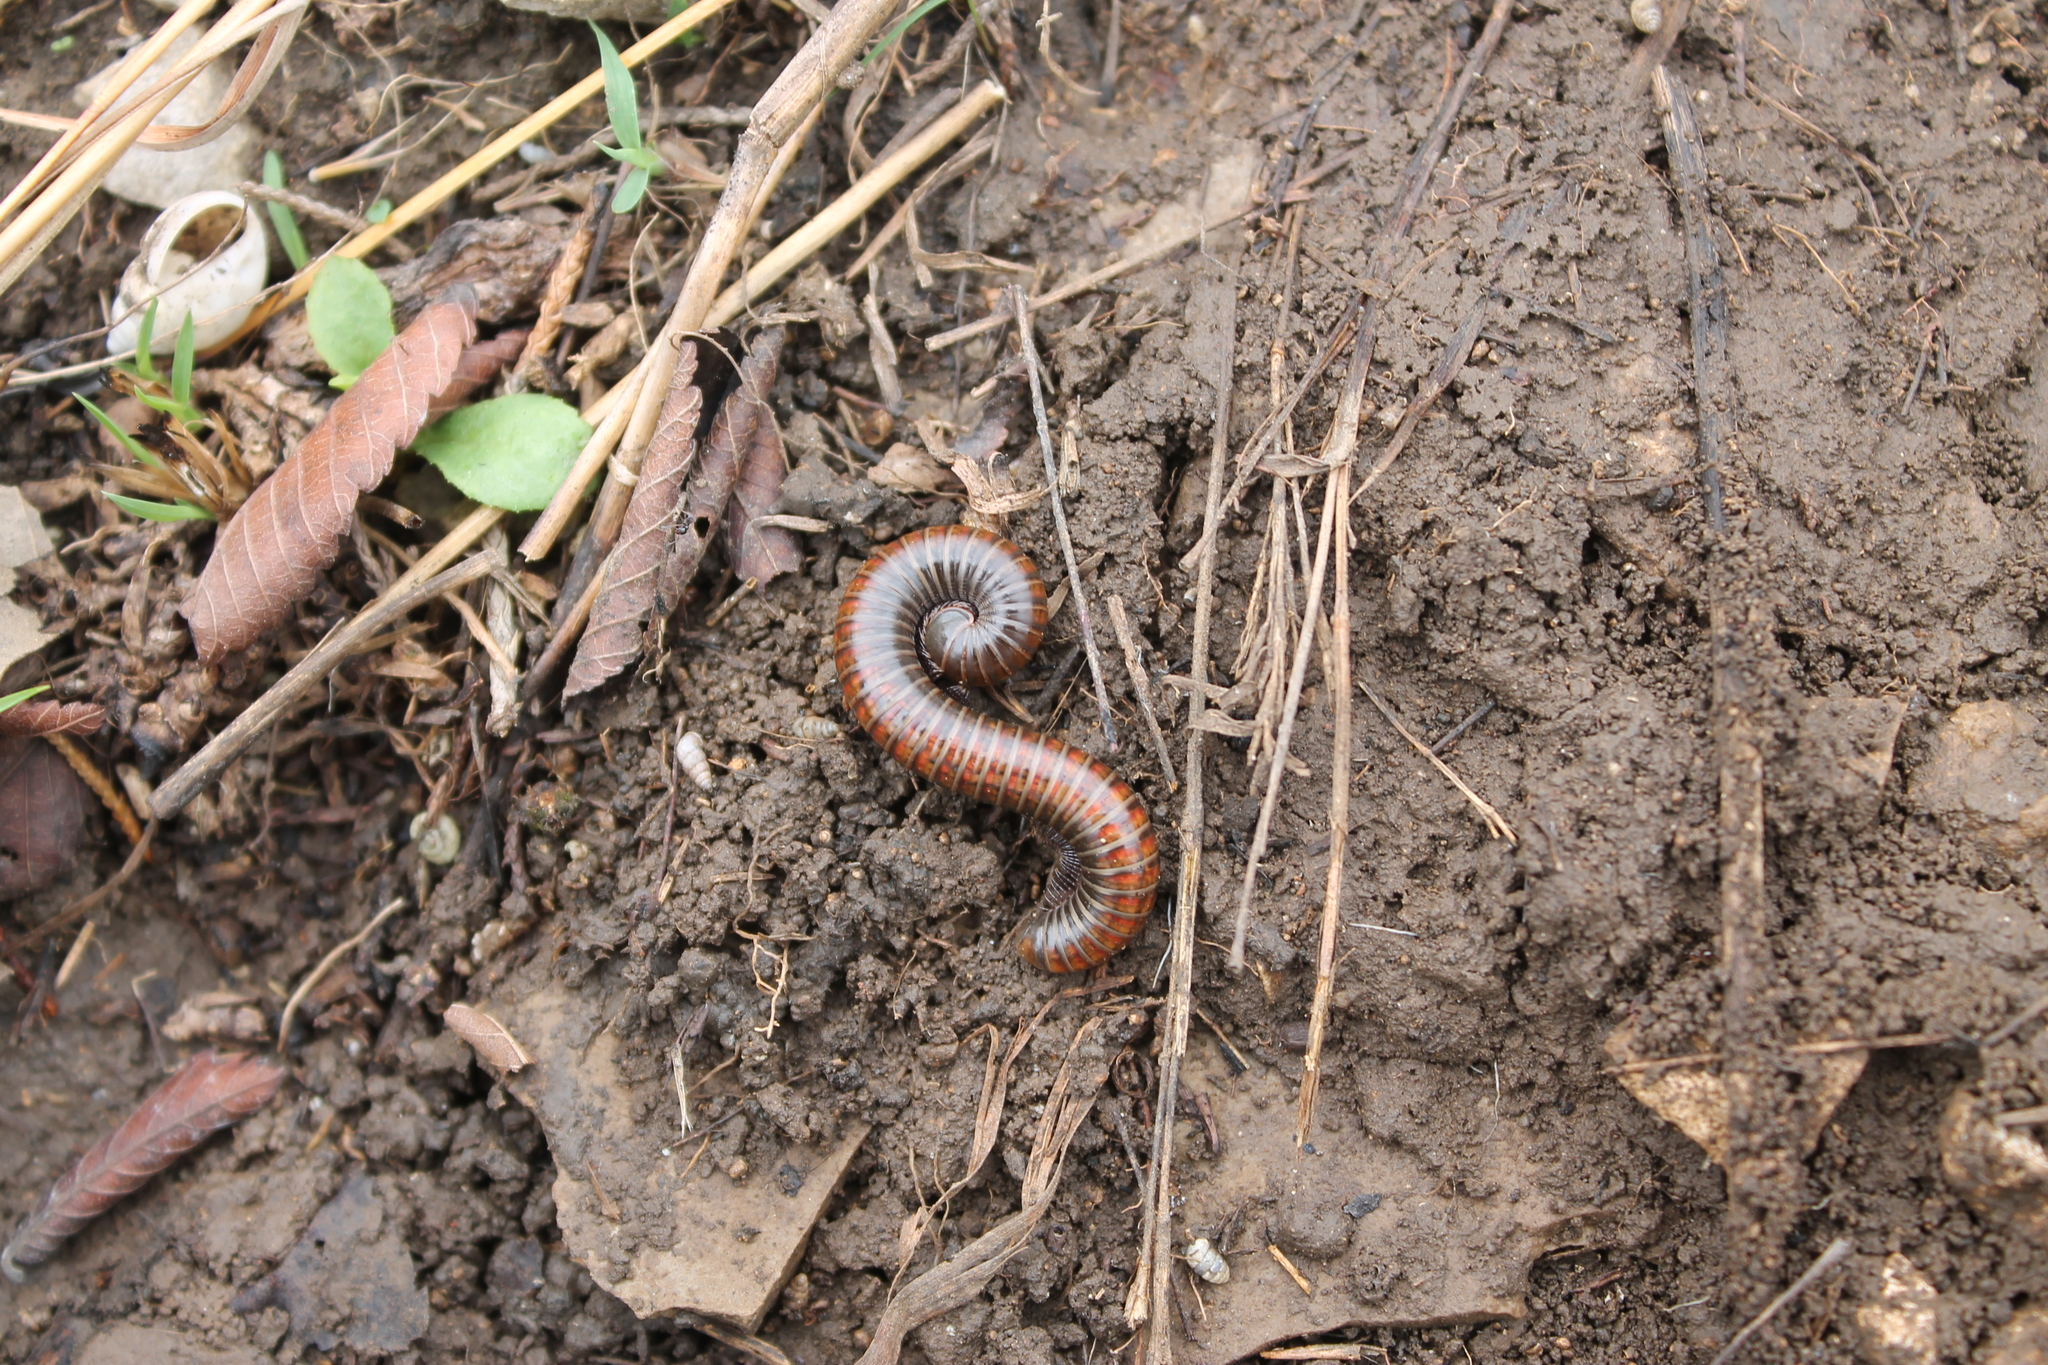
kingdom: Animalia
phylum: Arthropoda
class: Diplopoda
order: Spirostreptida
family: Choctellidae
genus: Choctella
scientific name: Choctella cumminsi
